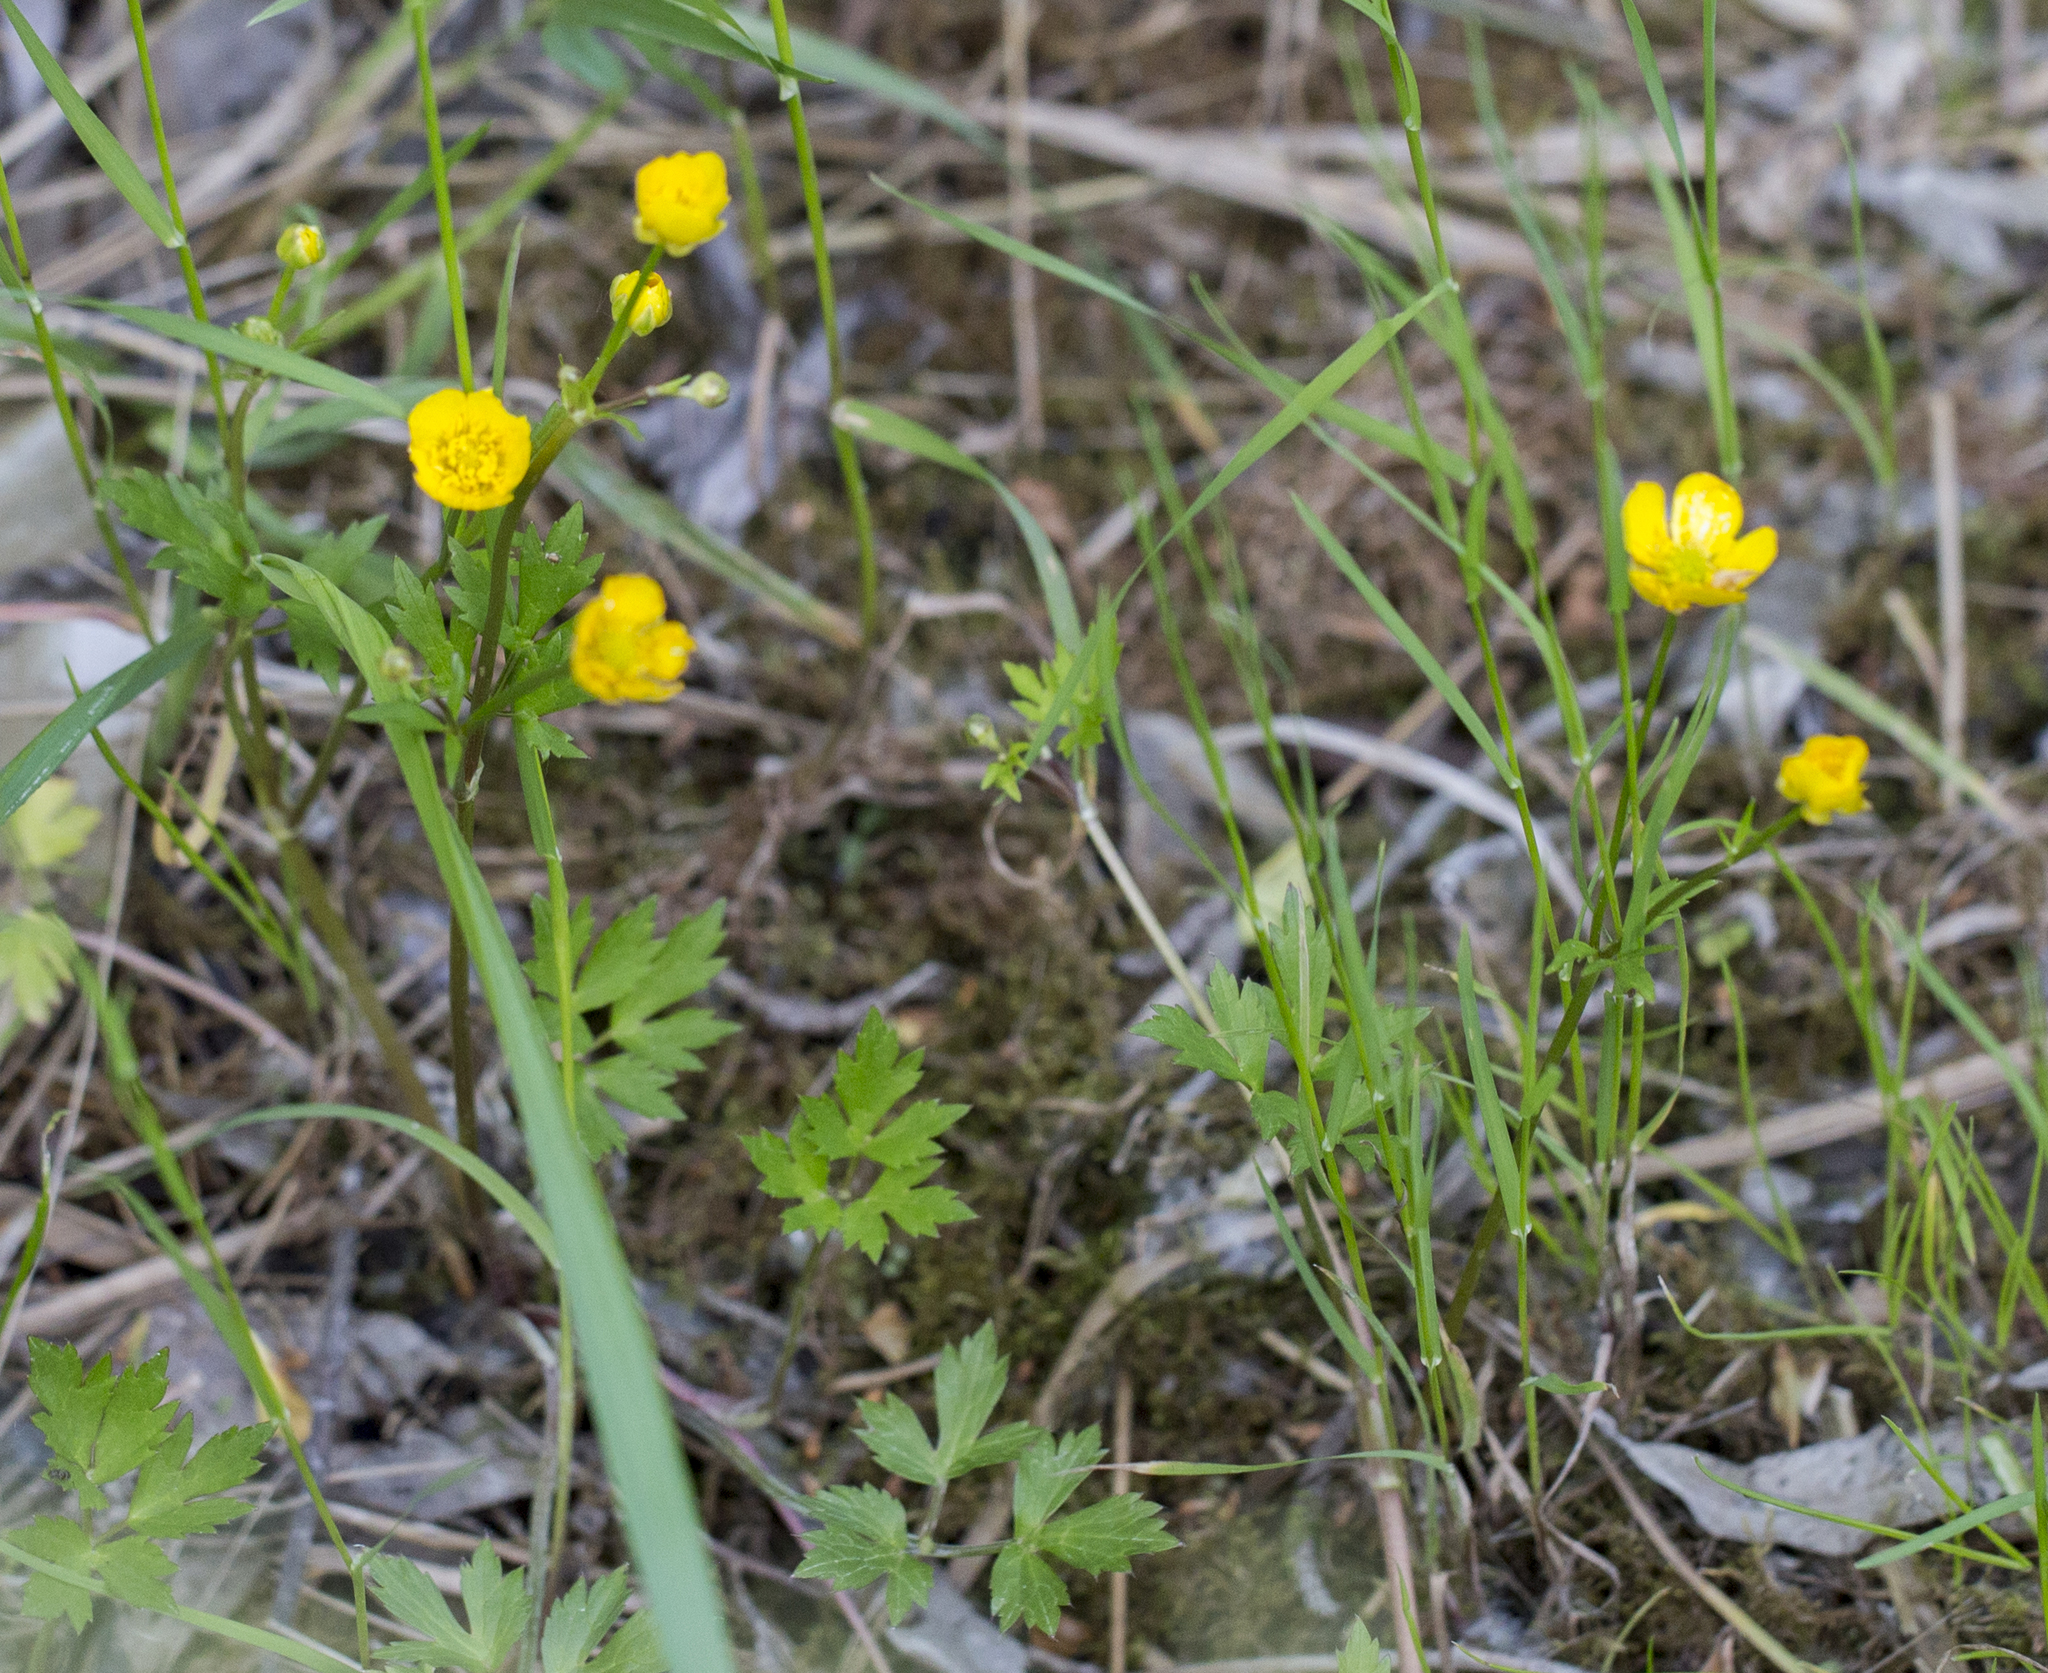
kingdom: Plantae
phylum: Tracheophyta
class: Magnoliopsida
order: Ranunculales
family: Ranunculaceae
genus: Ranunculus
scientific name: Ranunculus repens
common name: Creeping buttercup
